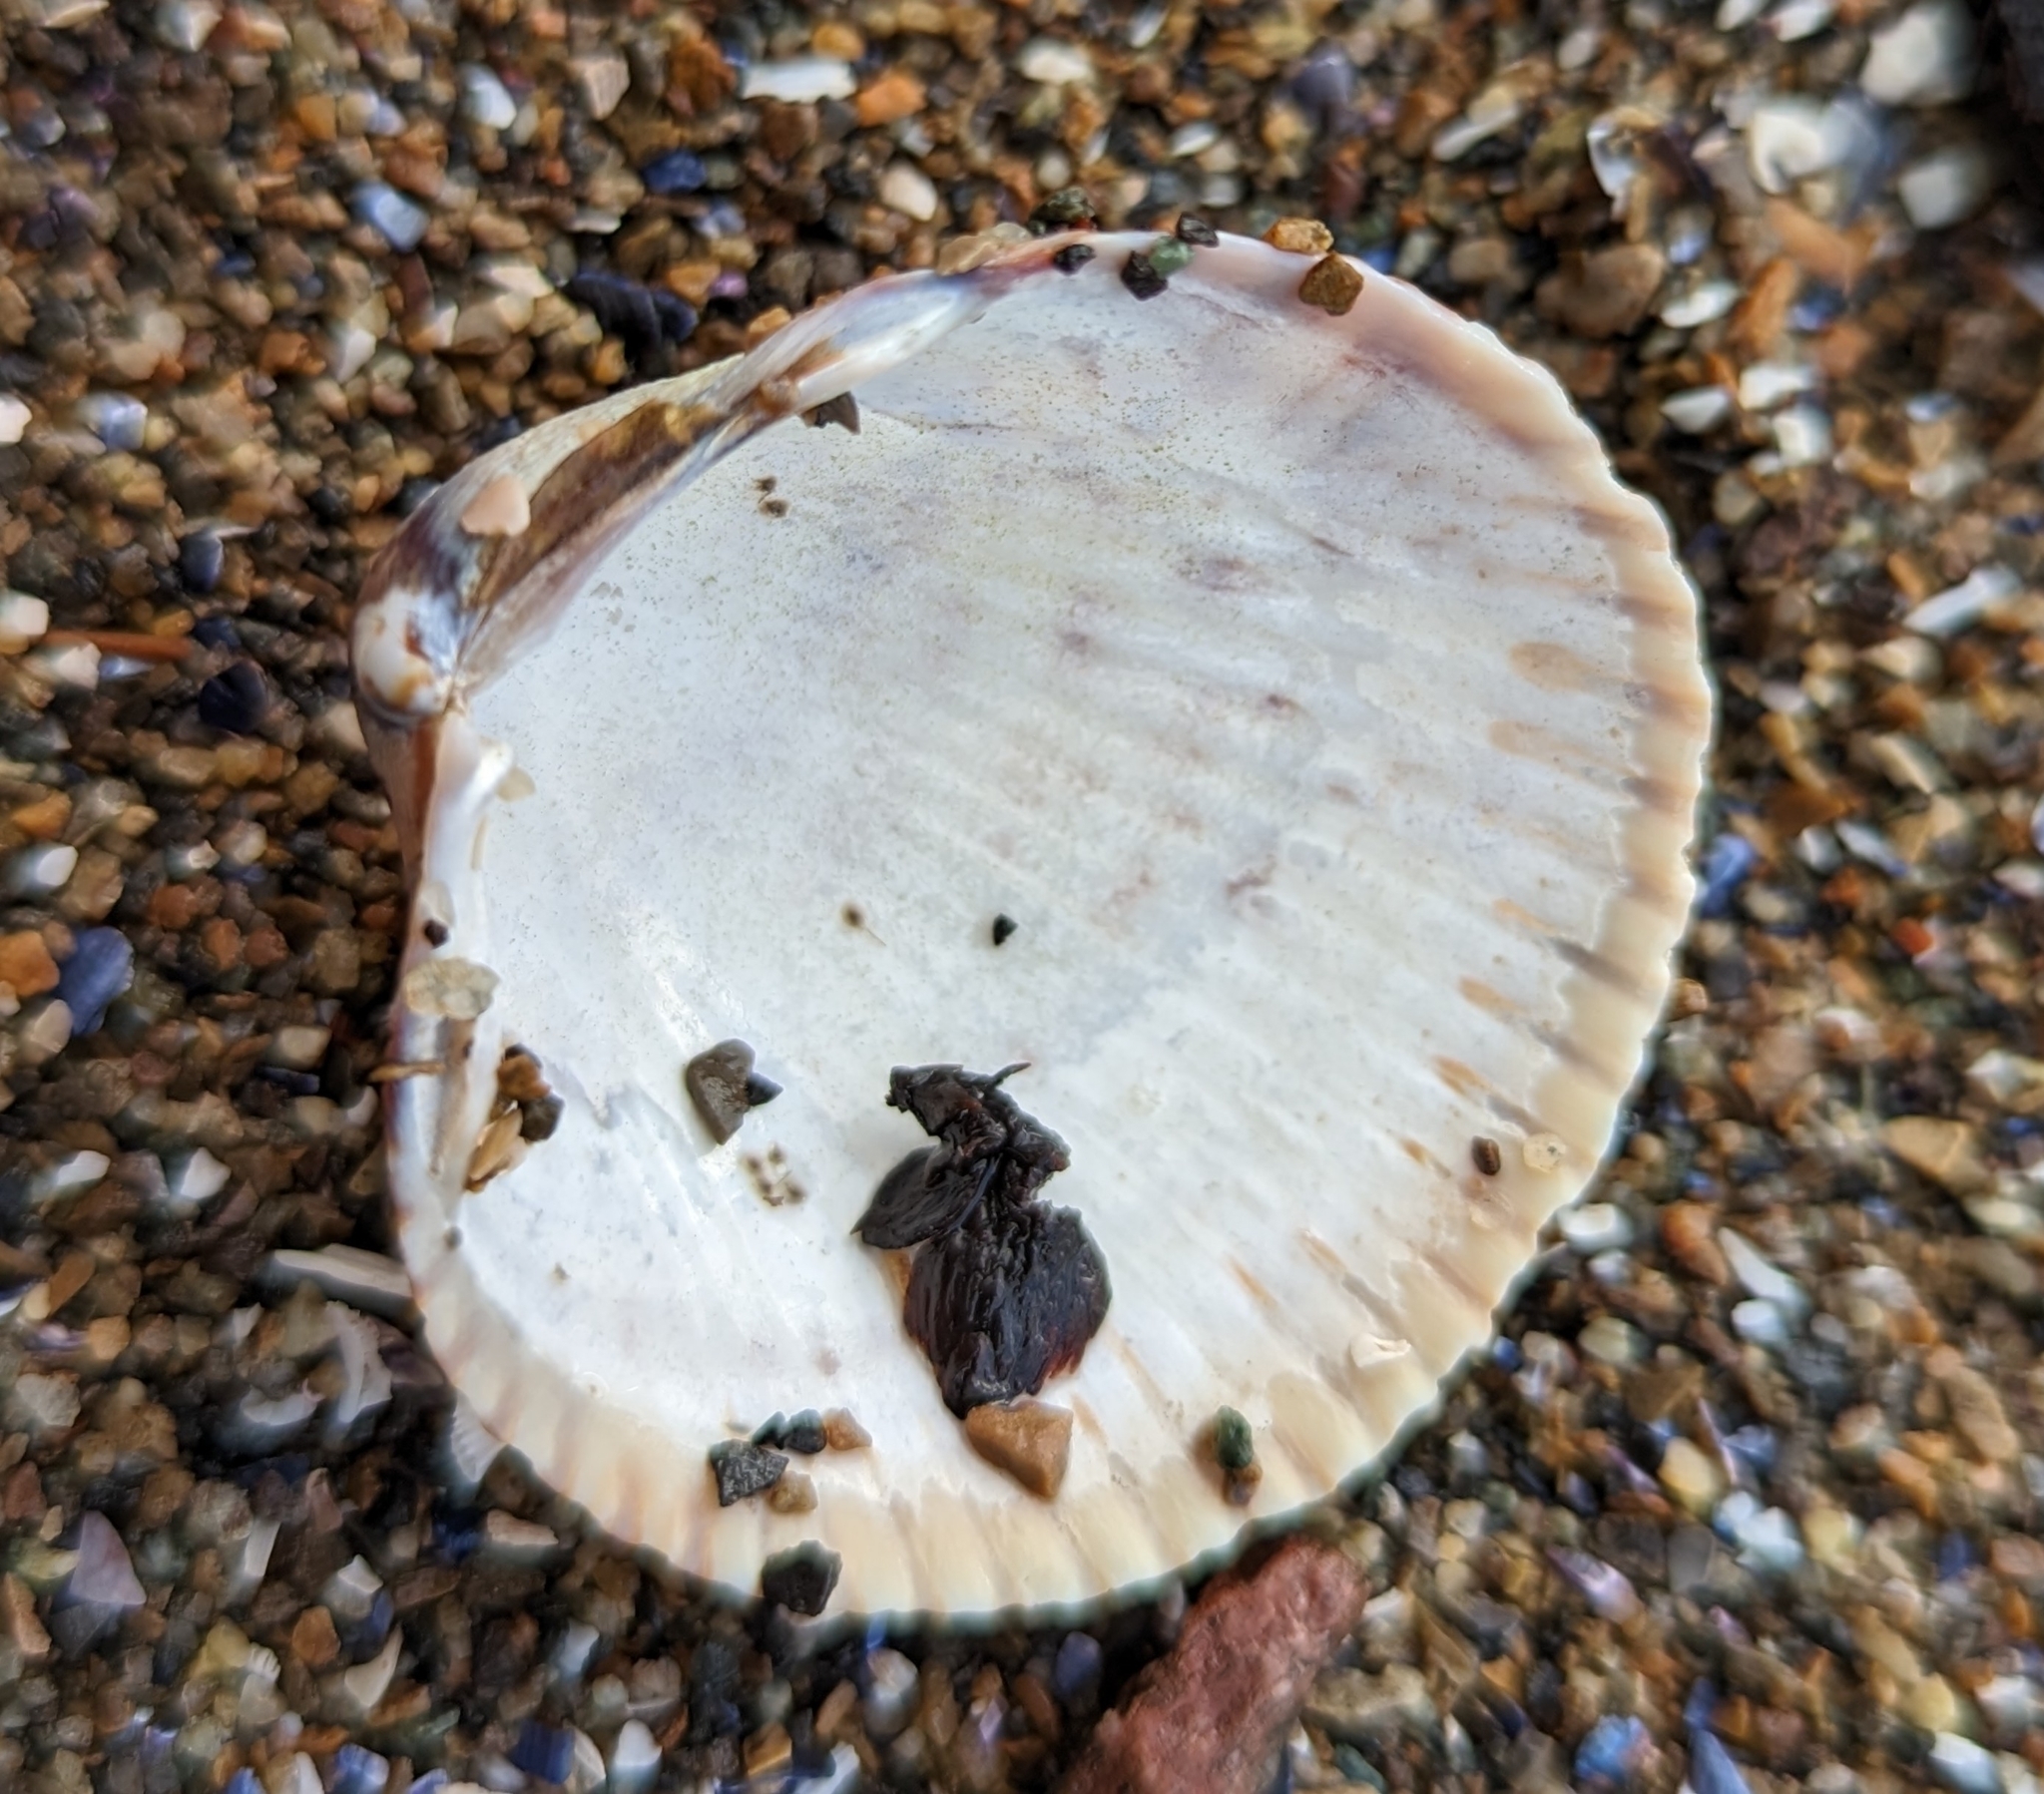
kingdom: Animalia
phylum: Mollusca
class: Bivalvia
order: Cardiida
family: Cardiidae
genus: Clinocardium
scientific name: Clinocardium nuttallii
